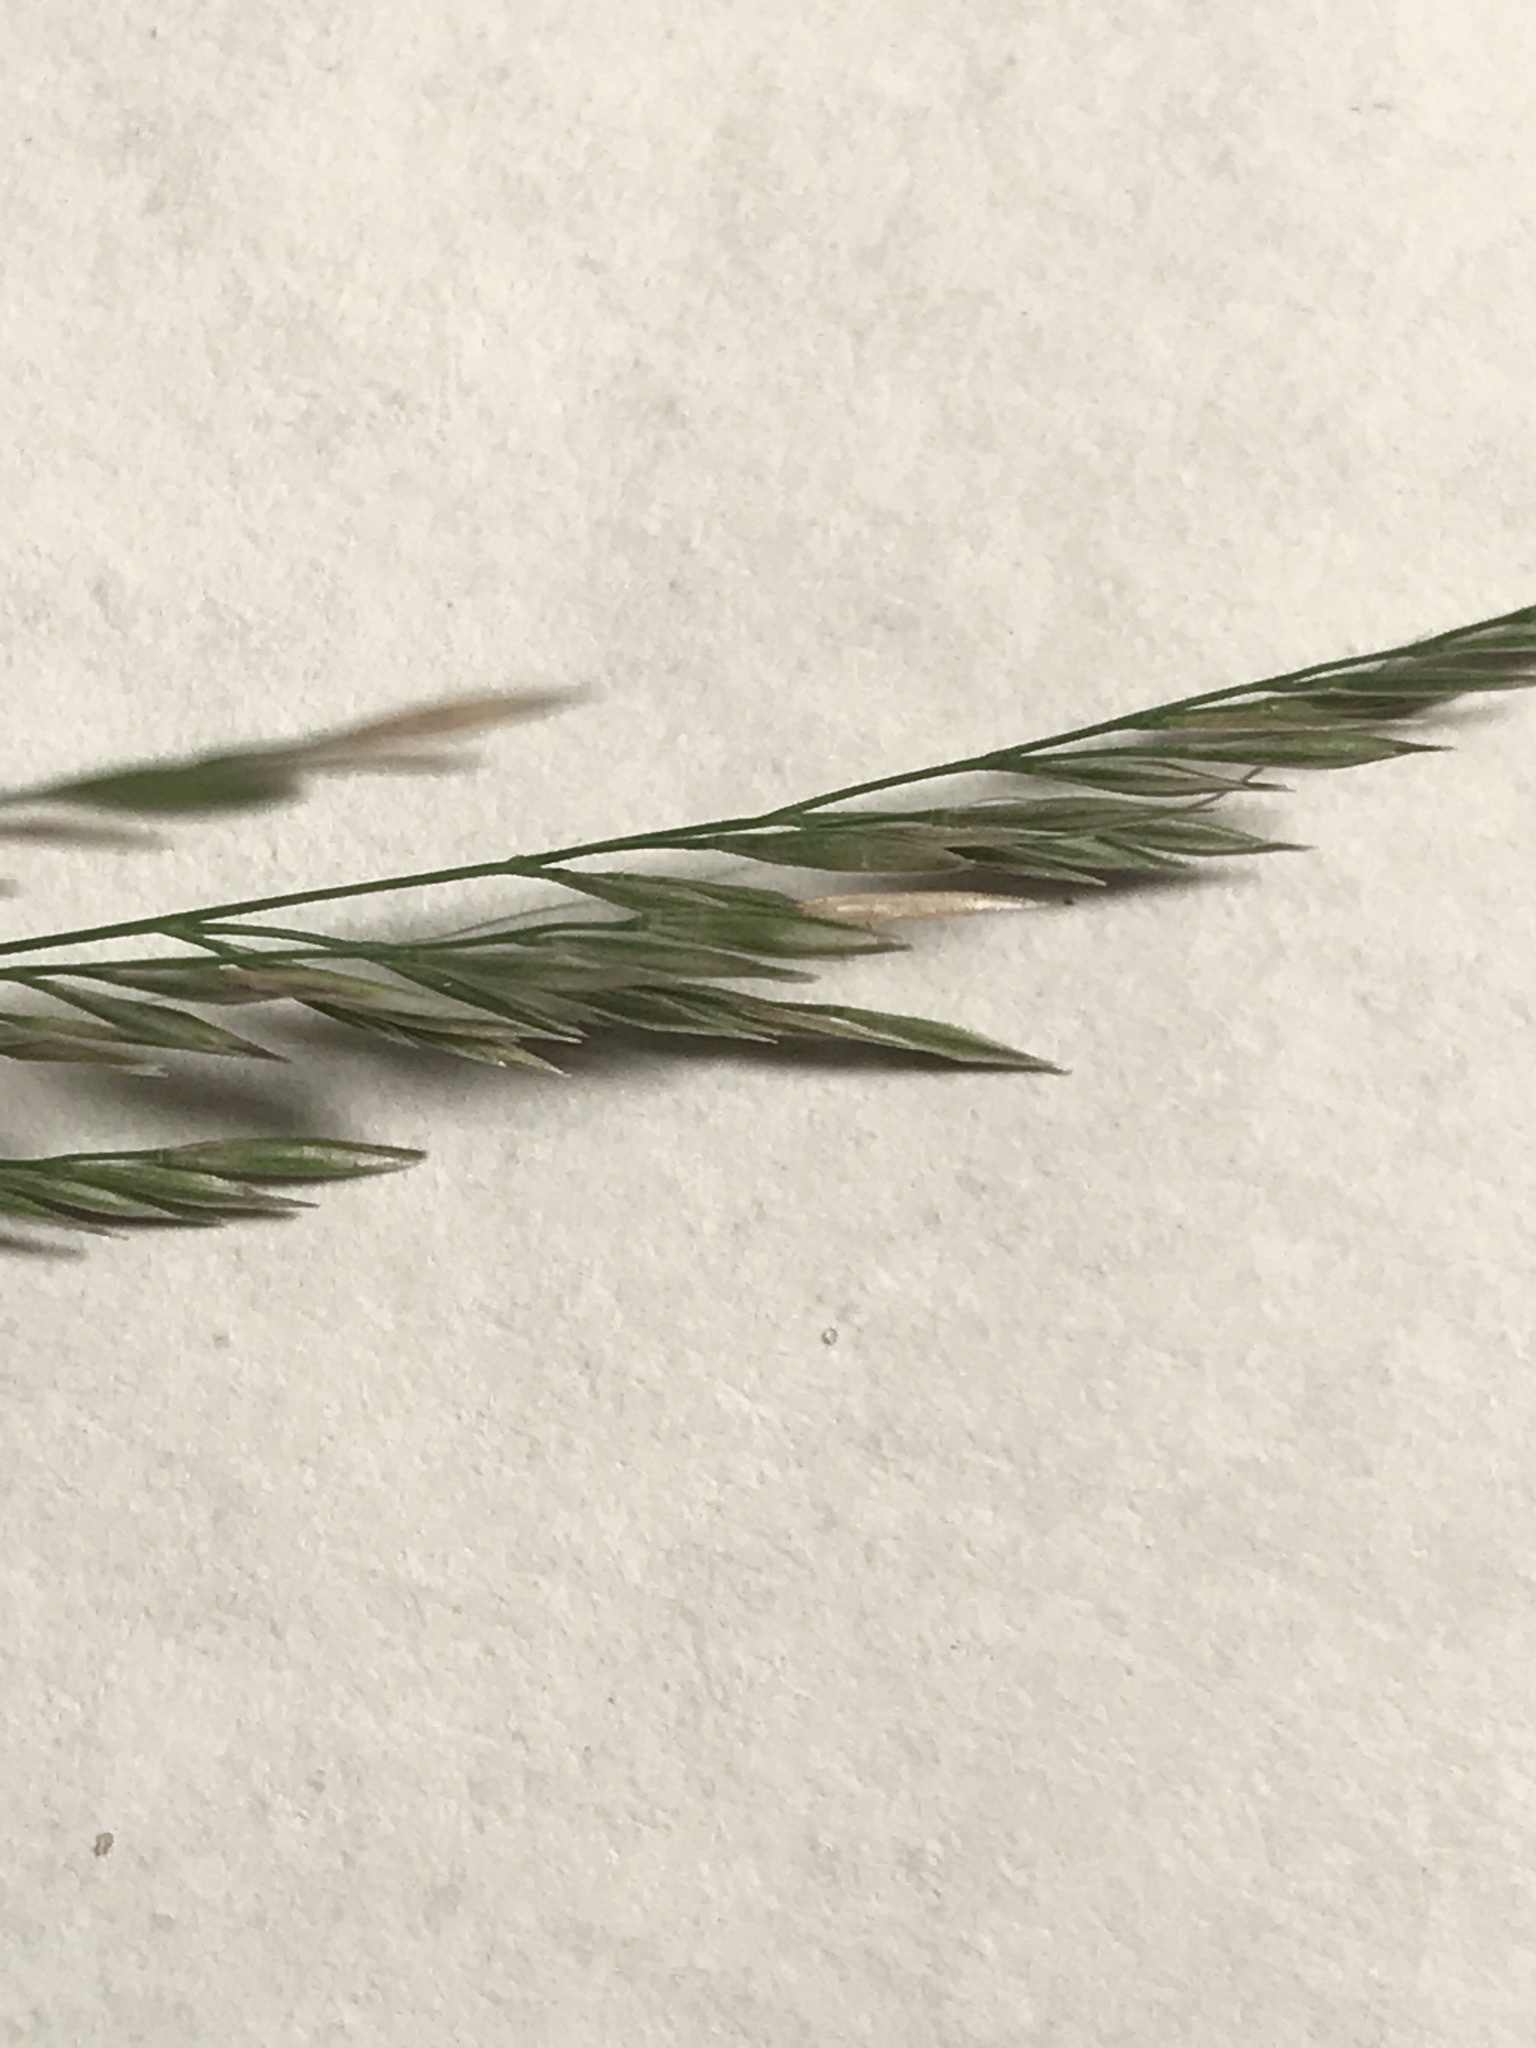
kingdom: Plantae
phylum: Tracheophyta
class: Liliopsida
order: Poales
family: Poaceae
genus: Cinna
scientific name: Cinna arundinacea
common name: Stout woodreed
